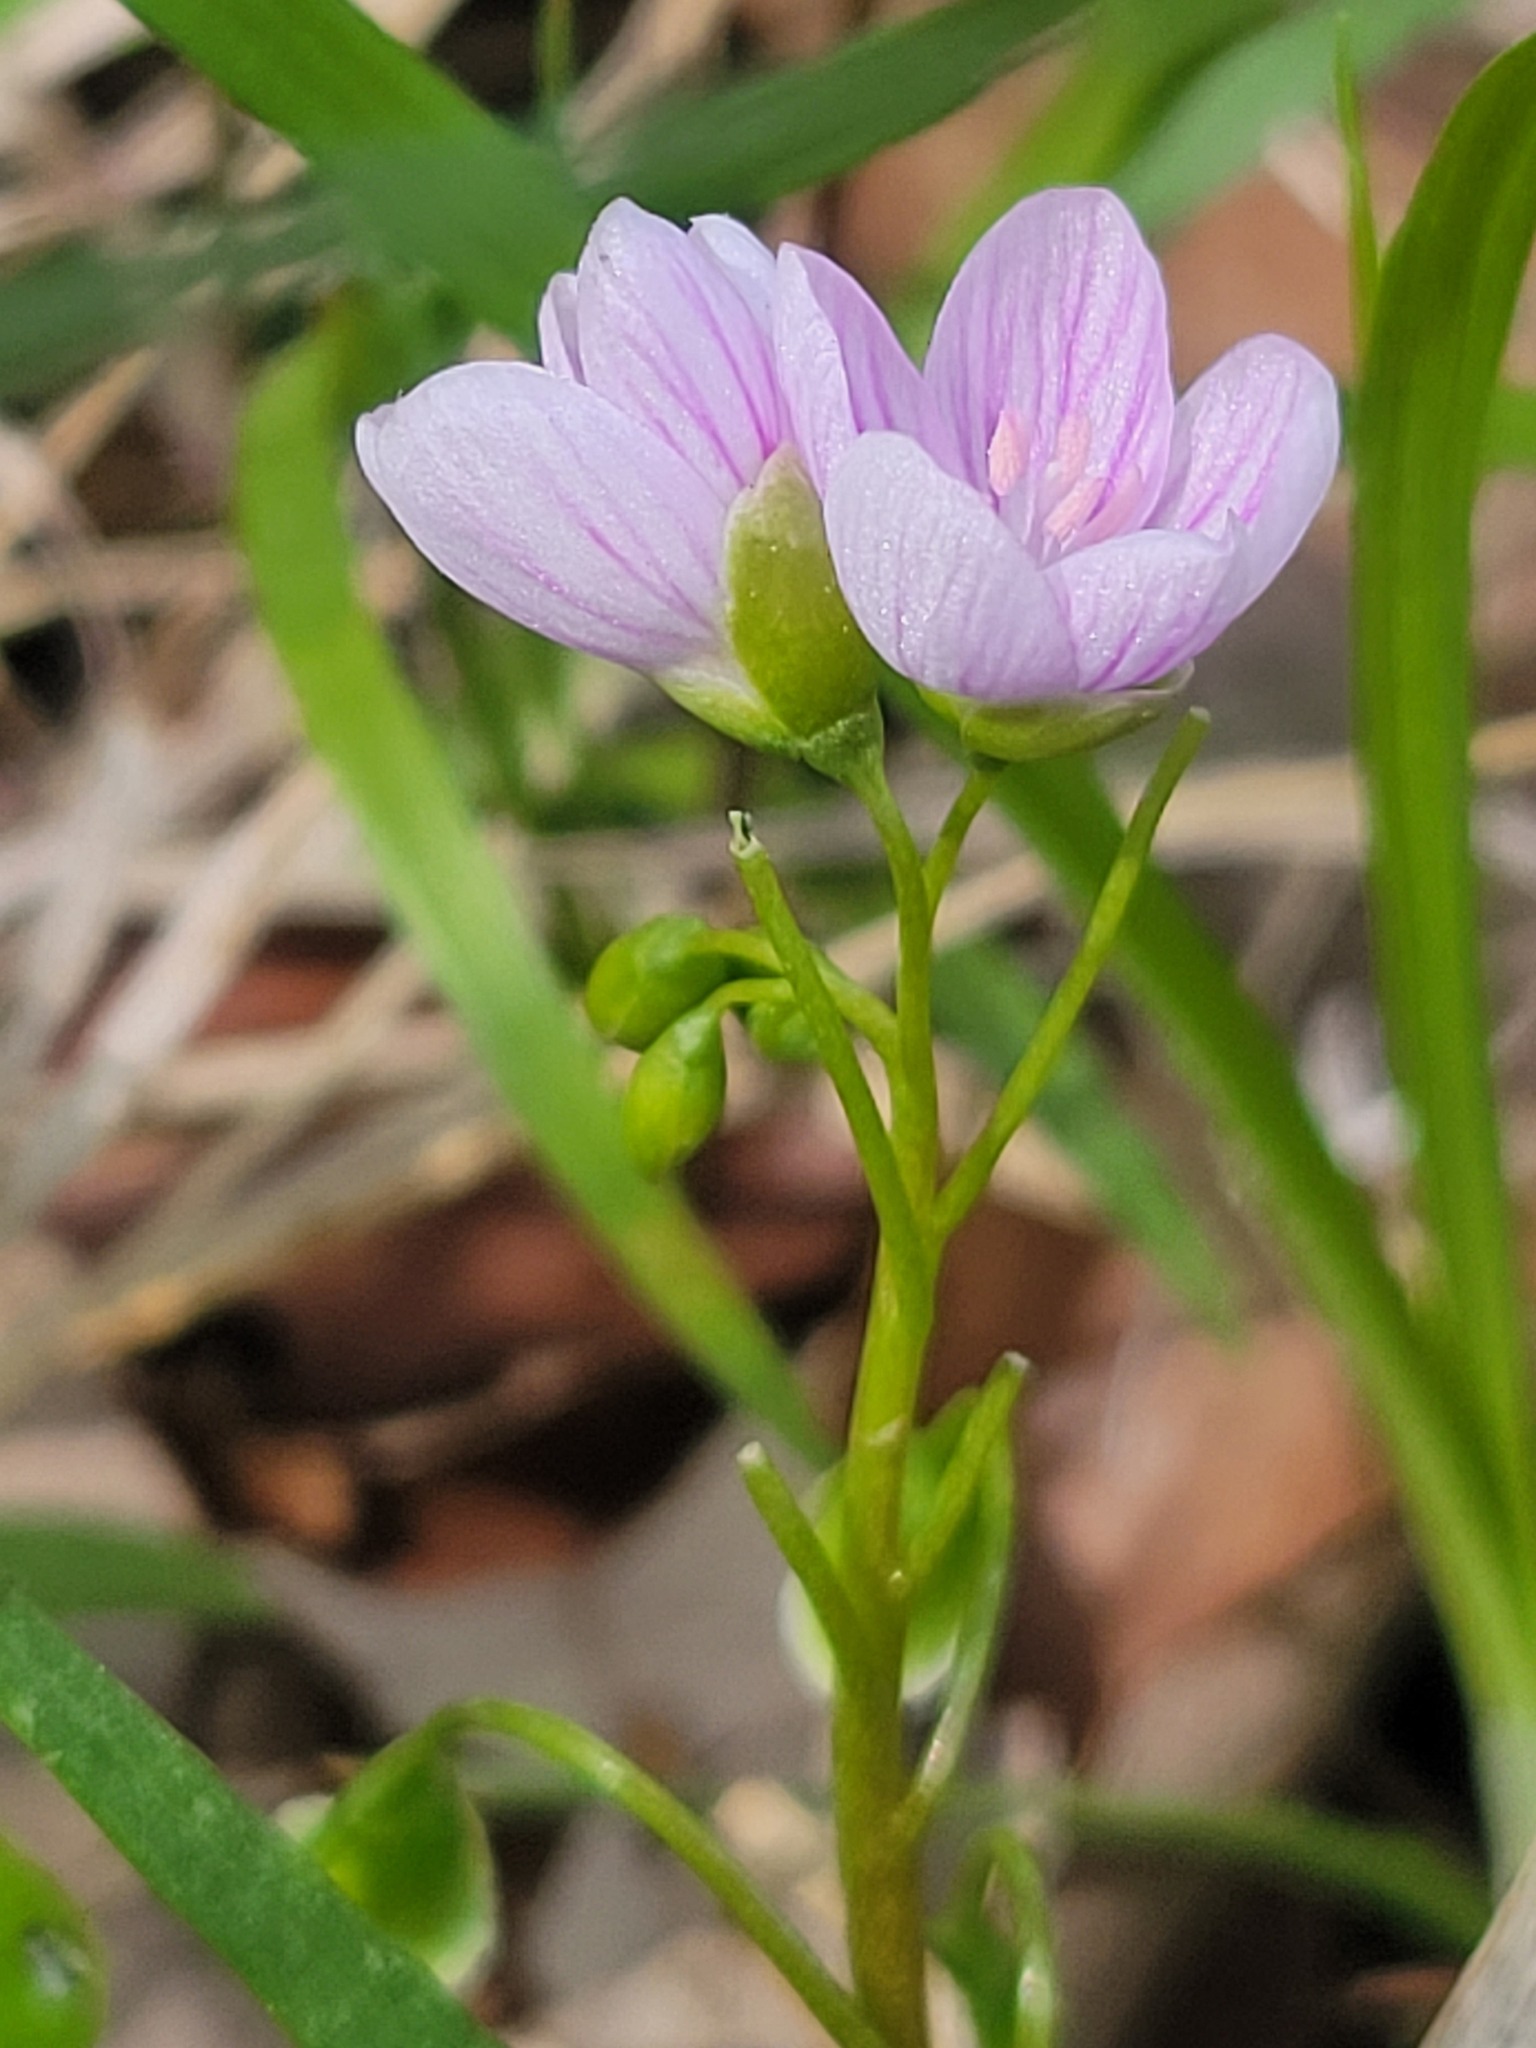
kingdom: Plantae
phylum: Tracheophyta
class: Magnoliopsida
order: Caryophyllales
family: Montiaceae
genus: Claytonia
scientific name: Claytonia virginica
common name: Virginia springbeauty
